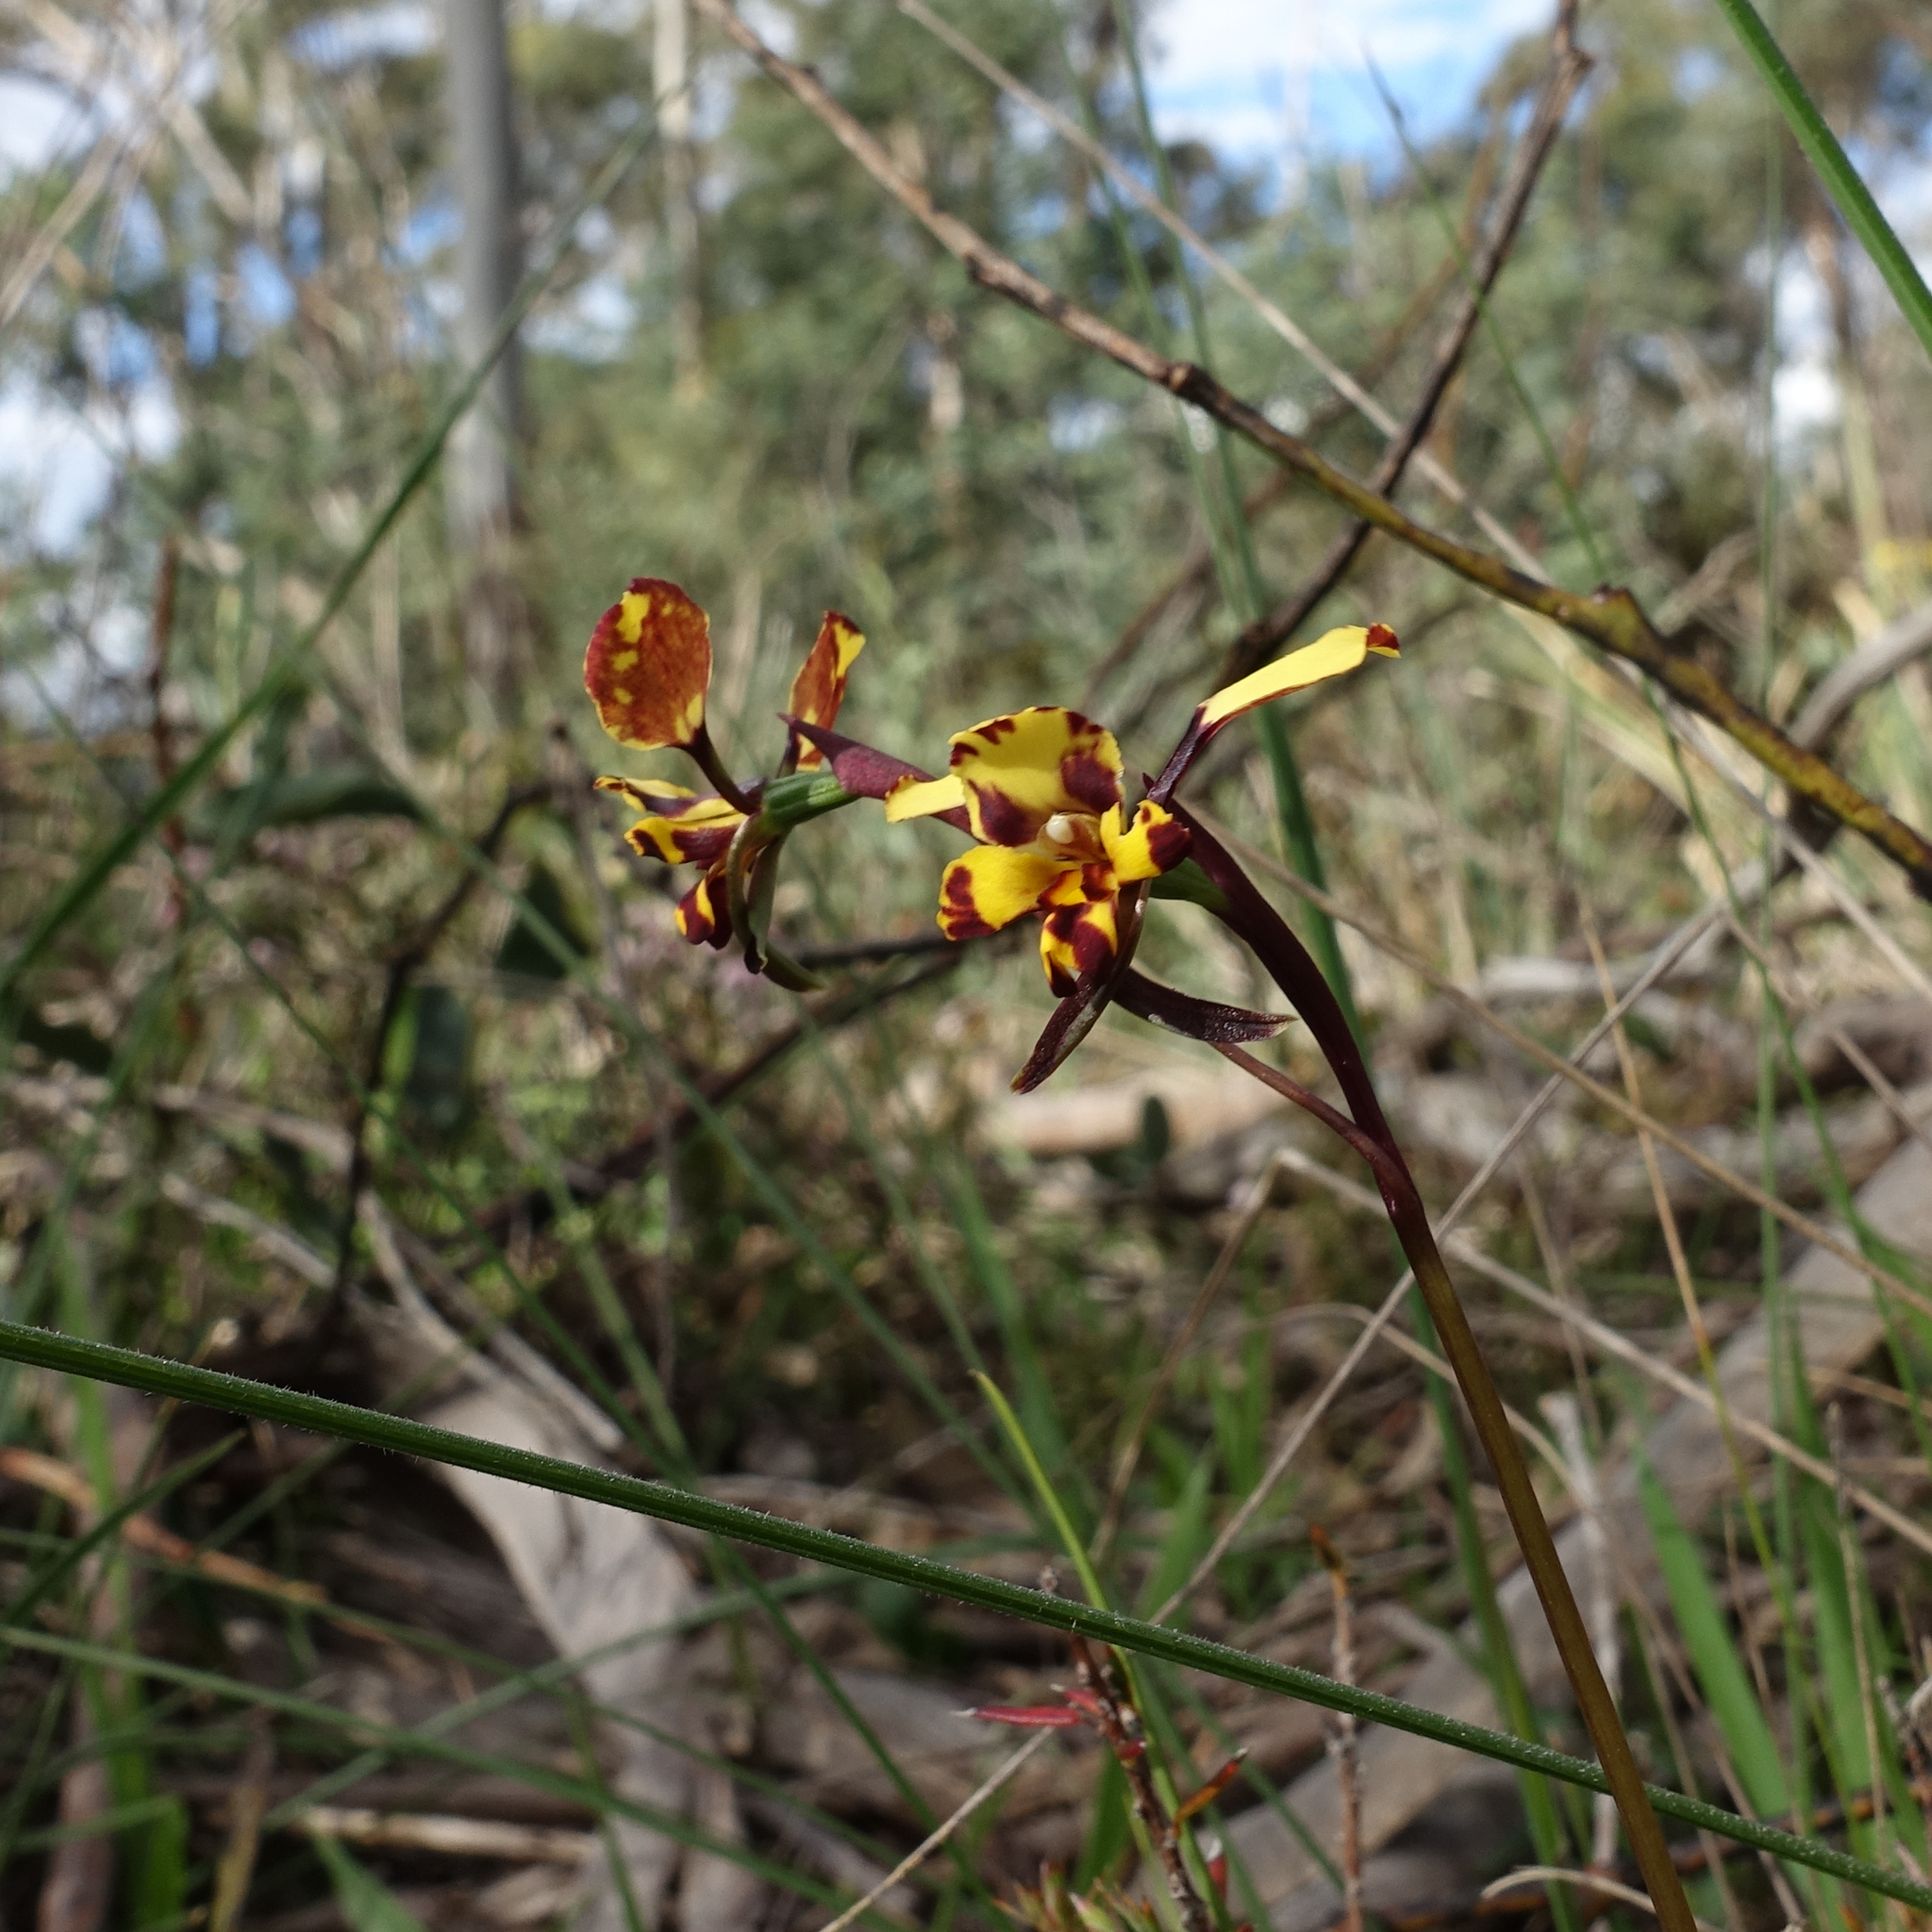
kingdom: Plantae
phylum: Tracheophyta
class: Liliopsida
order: Asparagales
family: Orchidaceae
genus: Diuris
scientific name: Diuris pardina
